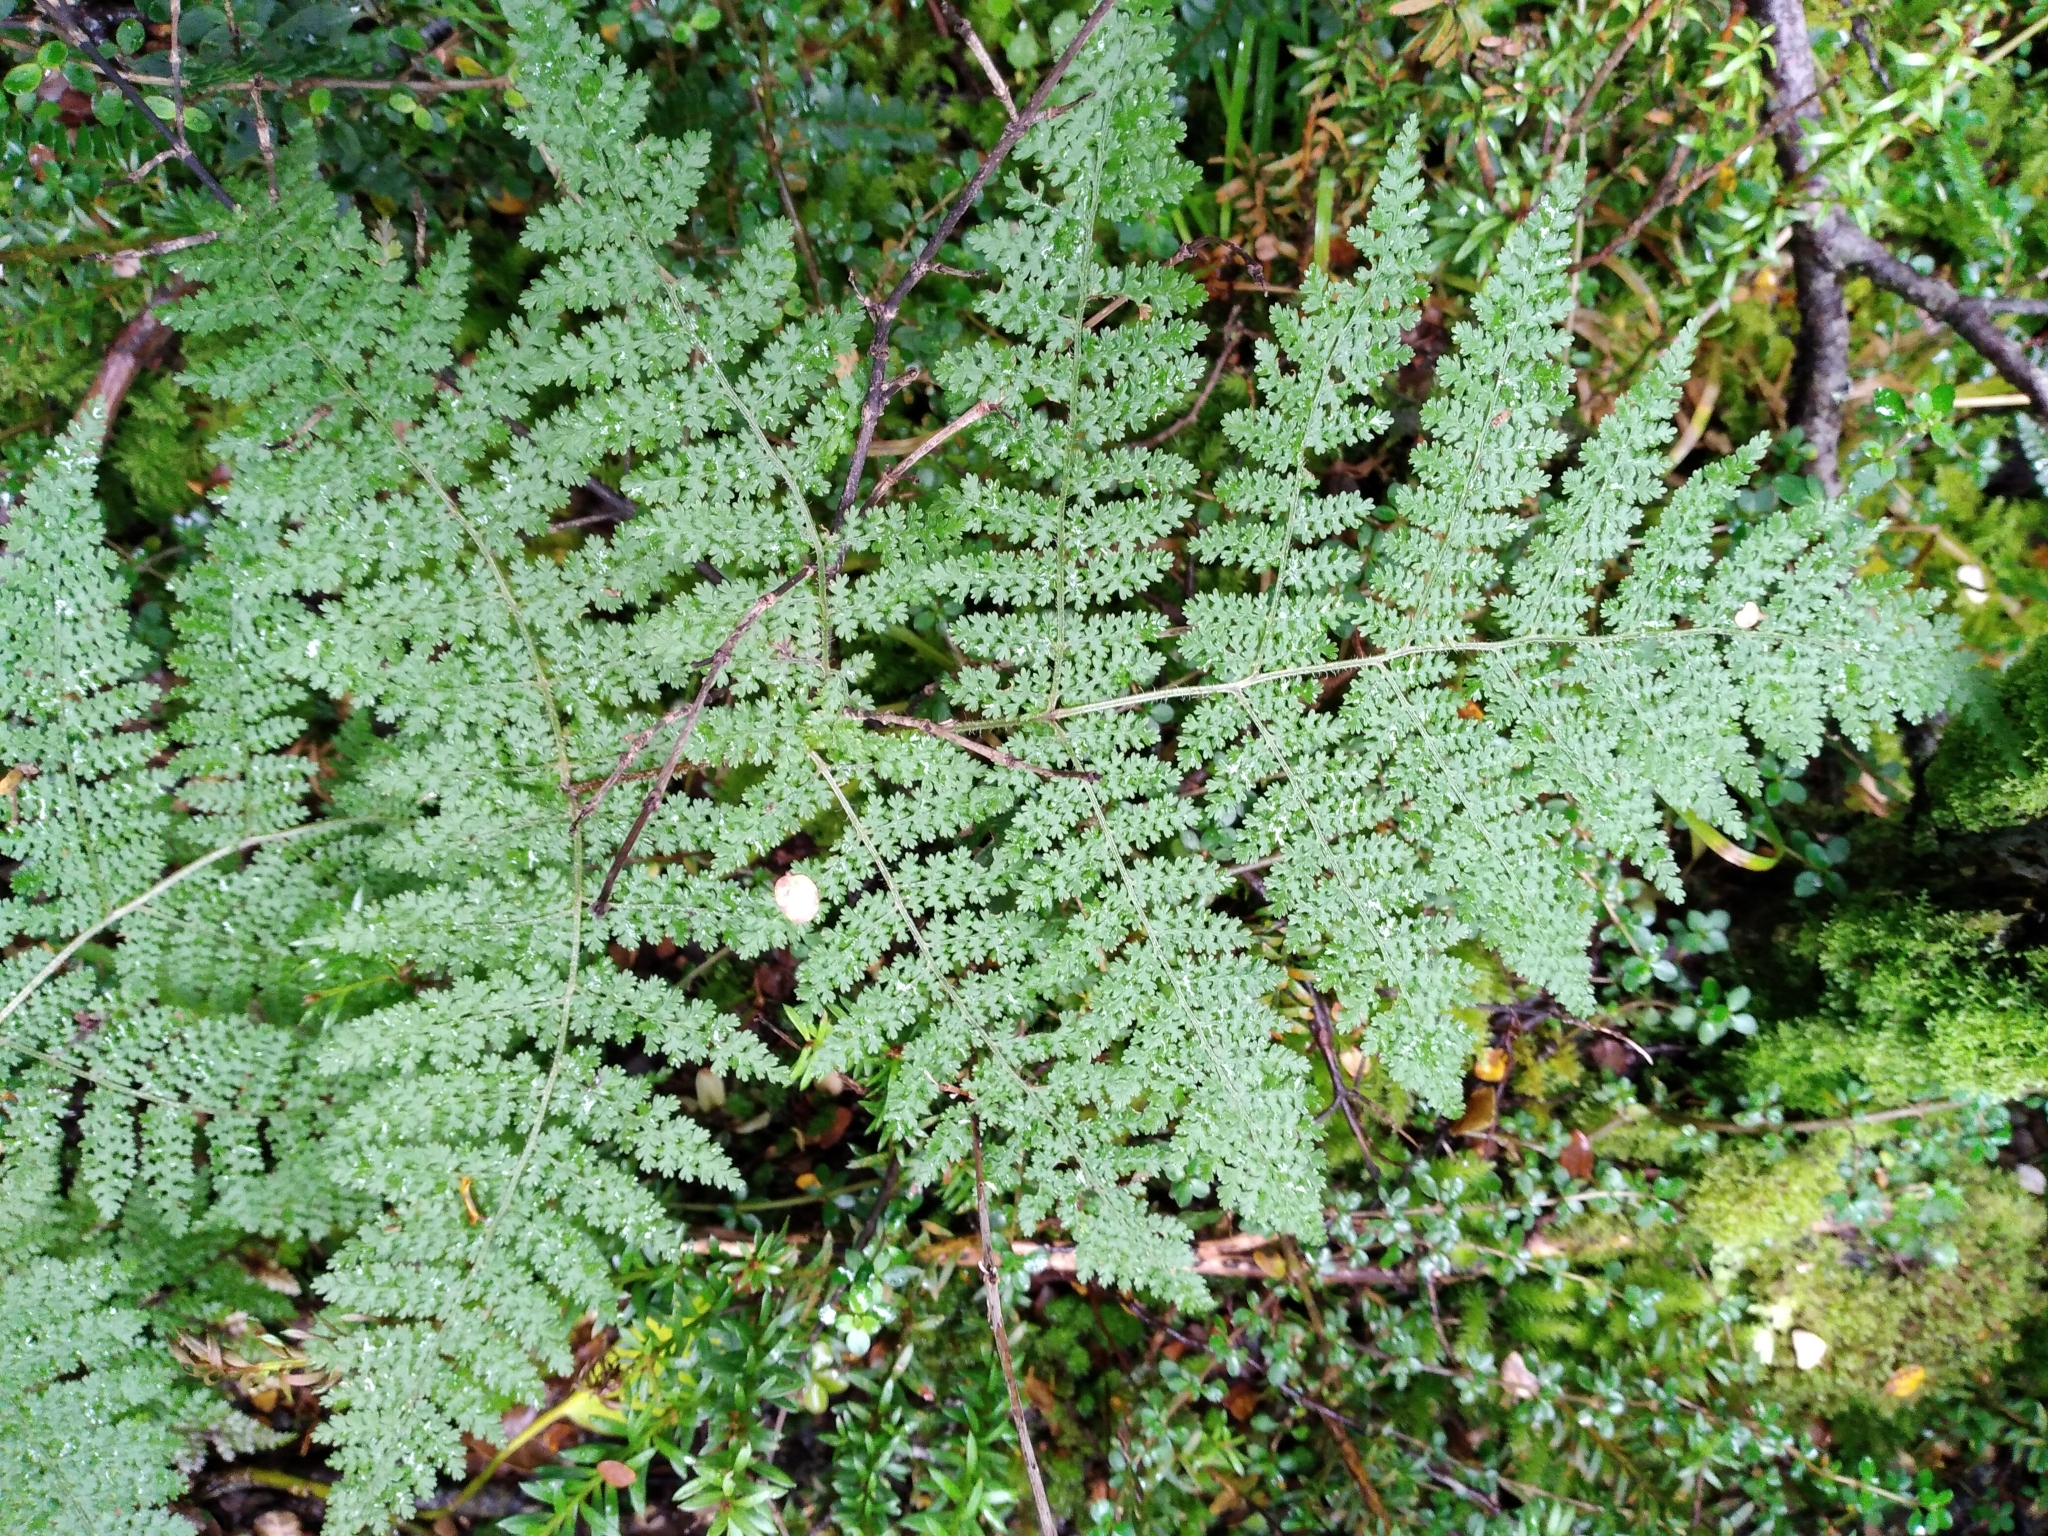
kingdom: Plantae
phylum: Tracheophyta
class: Polypodiopsida
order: Polypodiales
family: Dennstaedtiaceae
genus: Hypolepis
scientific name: Hypolepis millefolium
